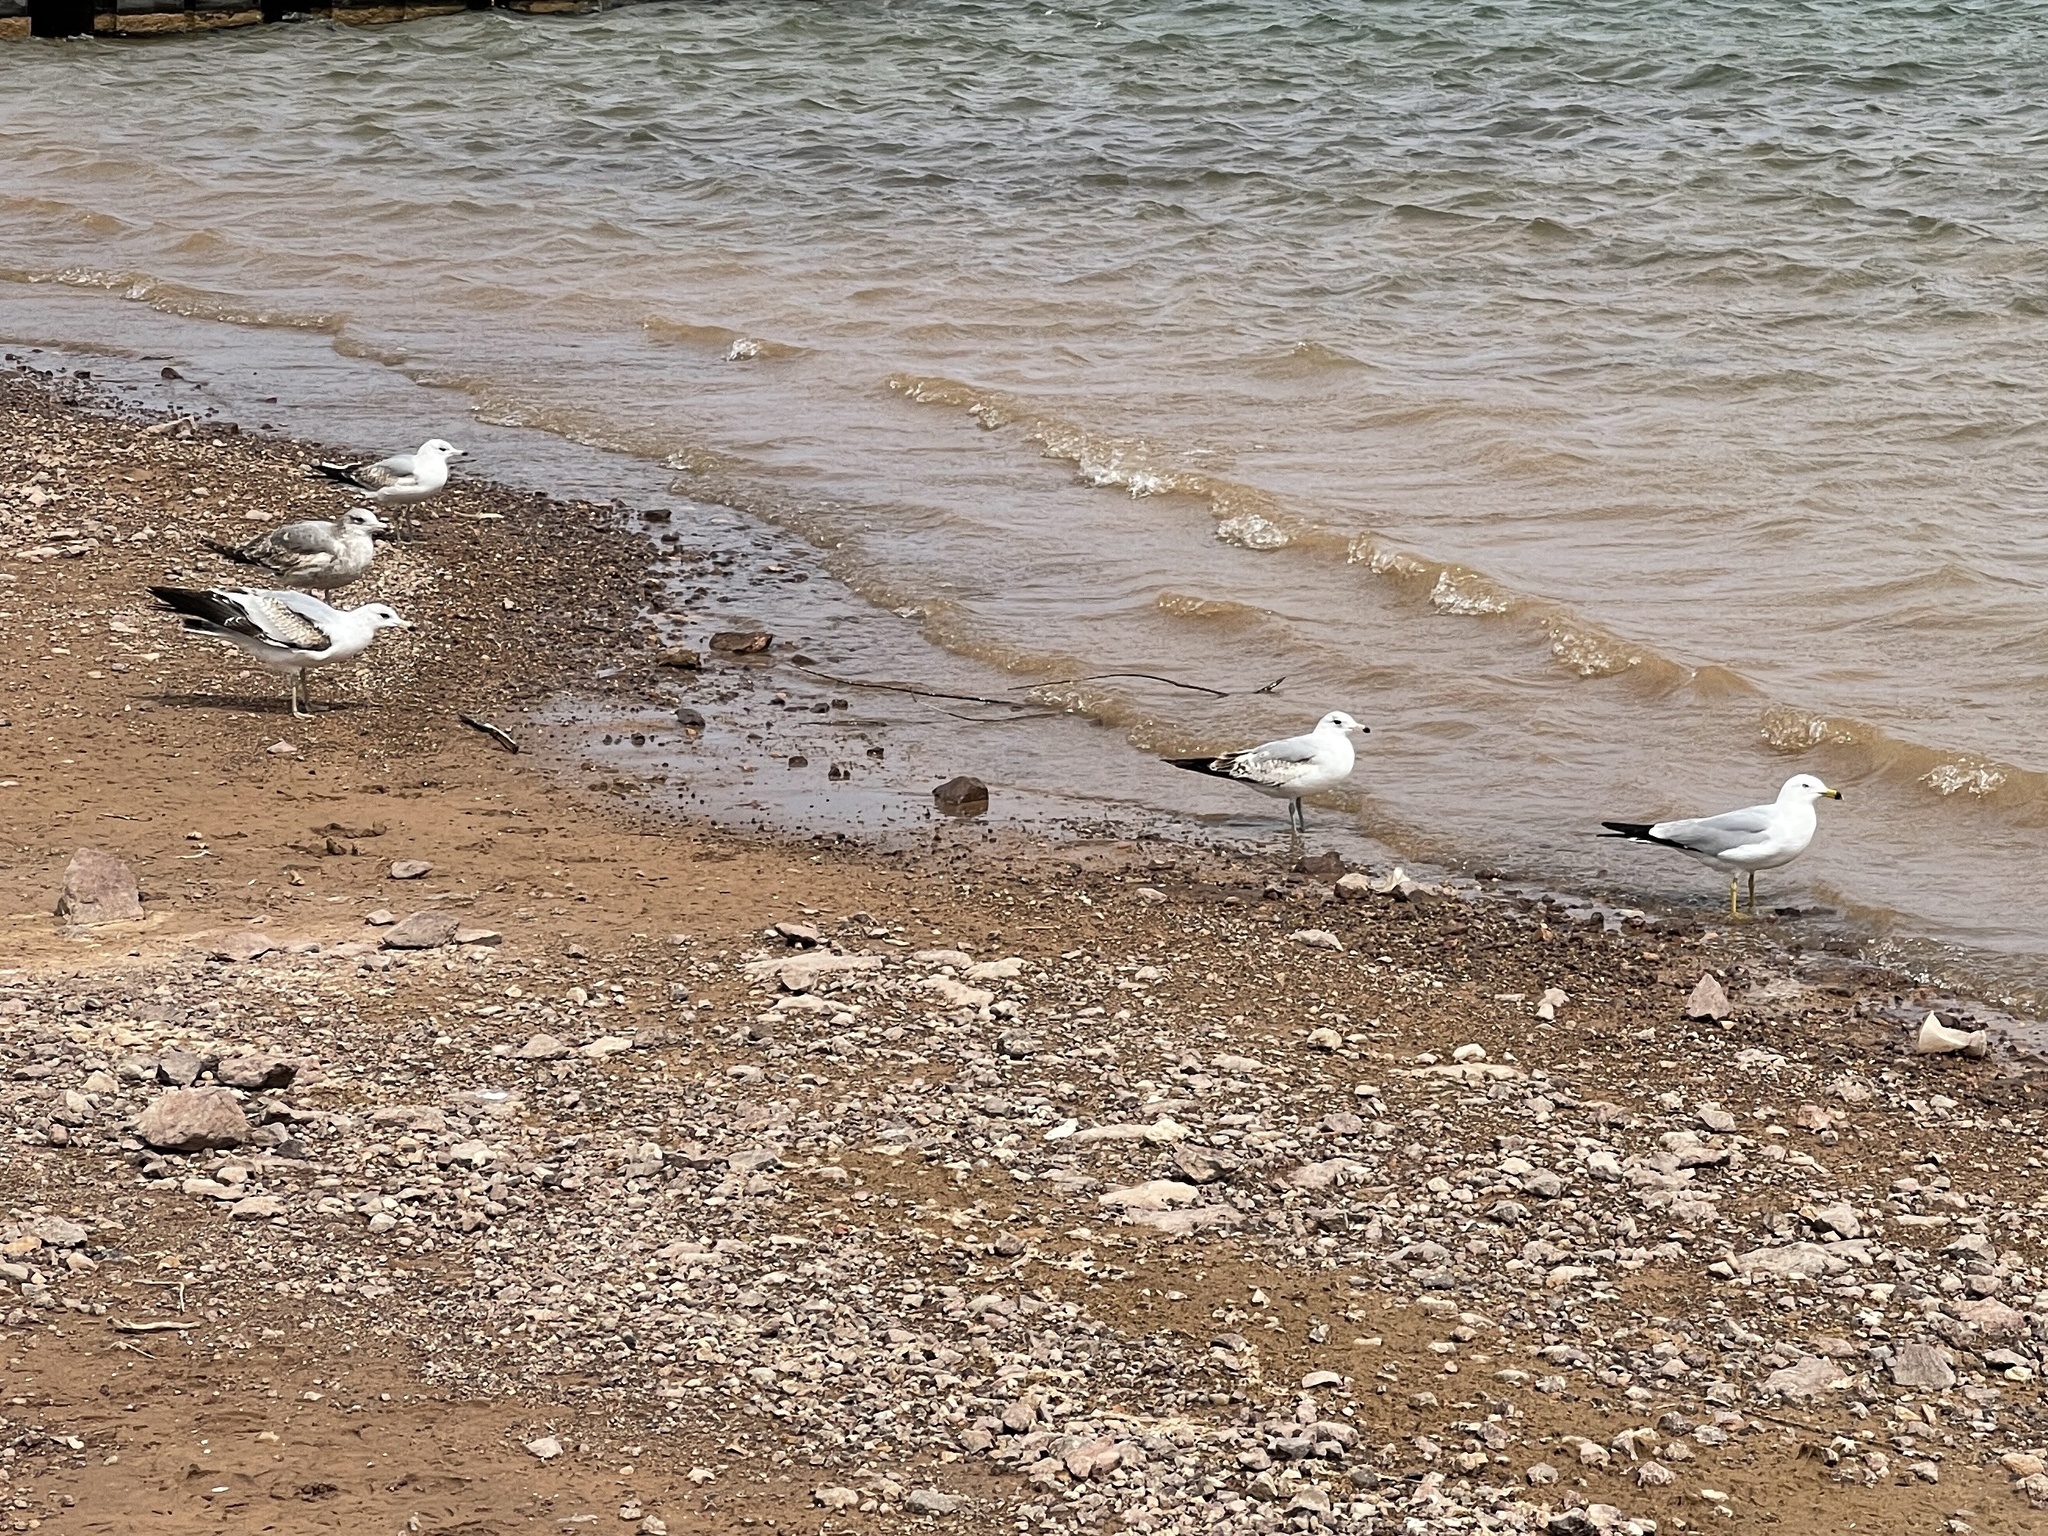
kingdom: Animalia
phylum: Chordata
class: Aves
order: Charadriiformes
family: Laridae
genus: Larus
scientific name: Larus delawarensis
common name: Ring-billed gull
